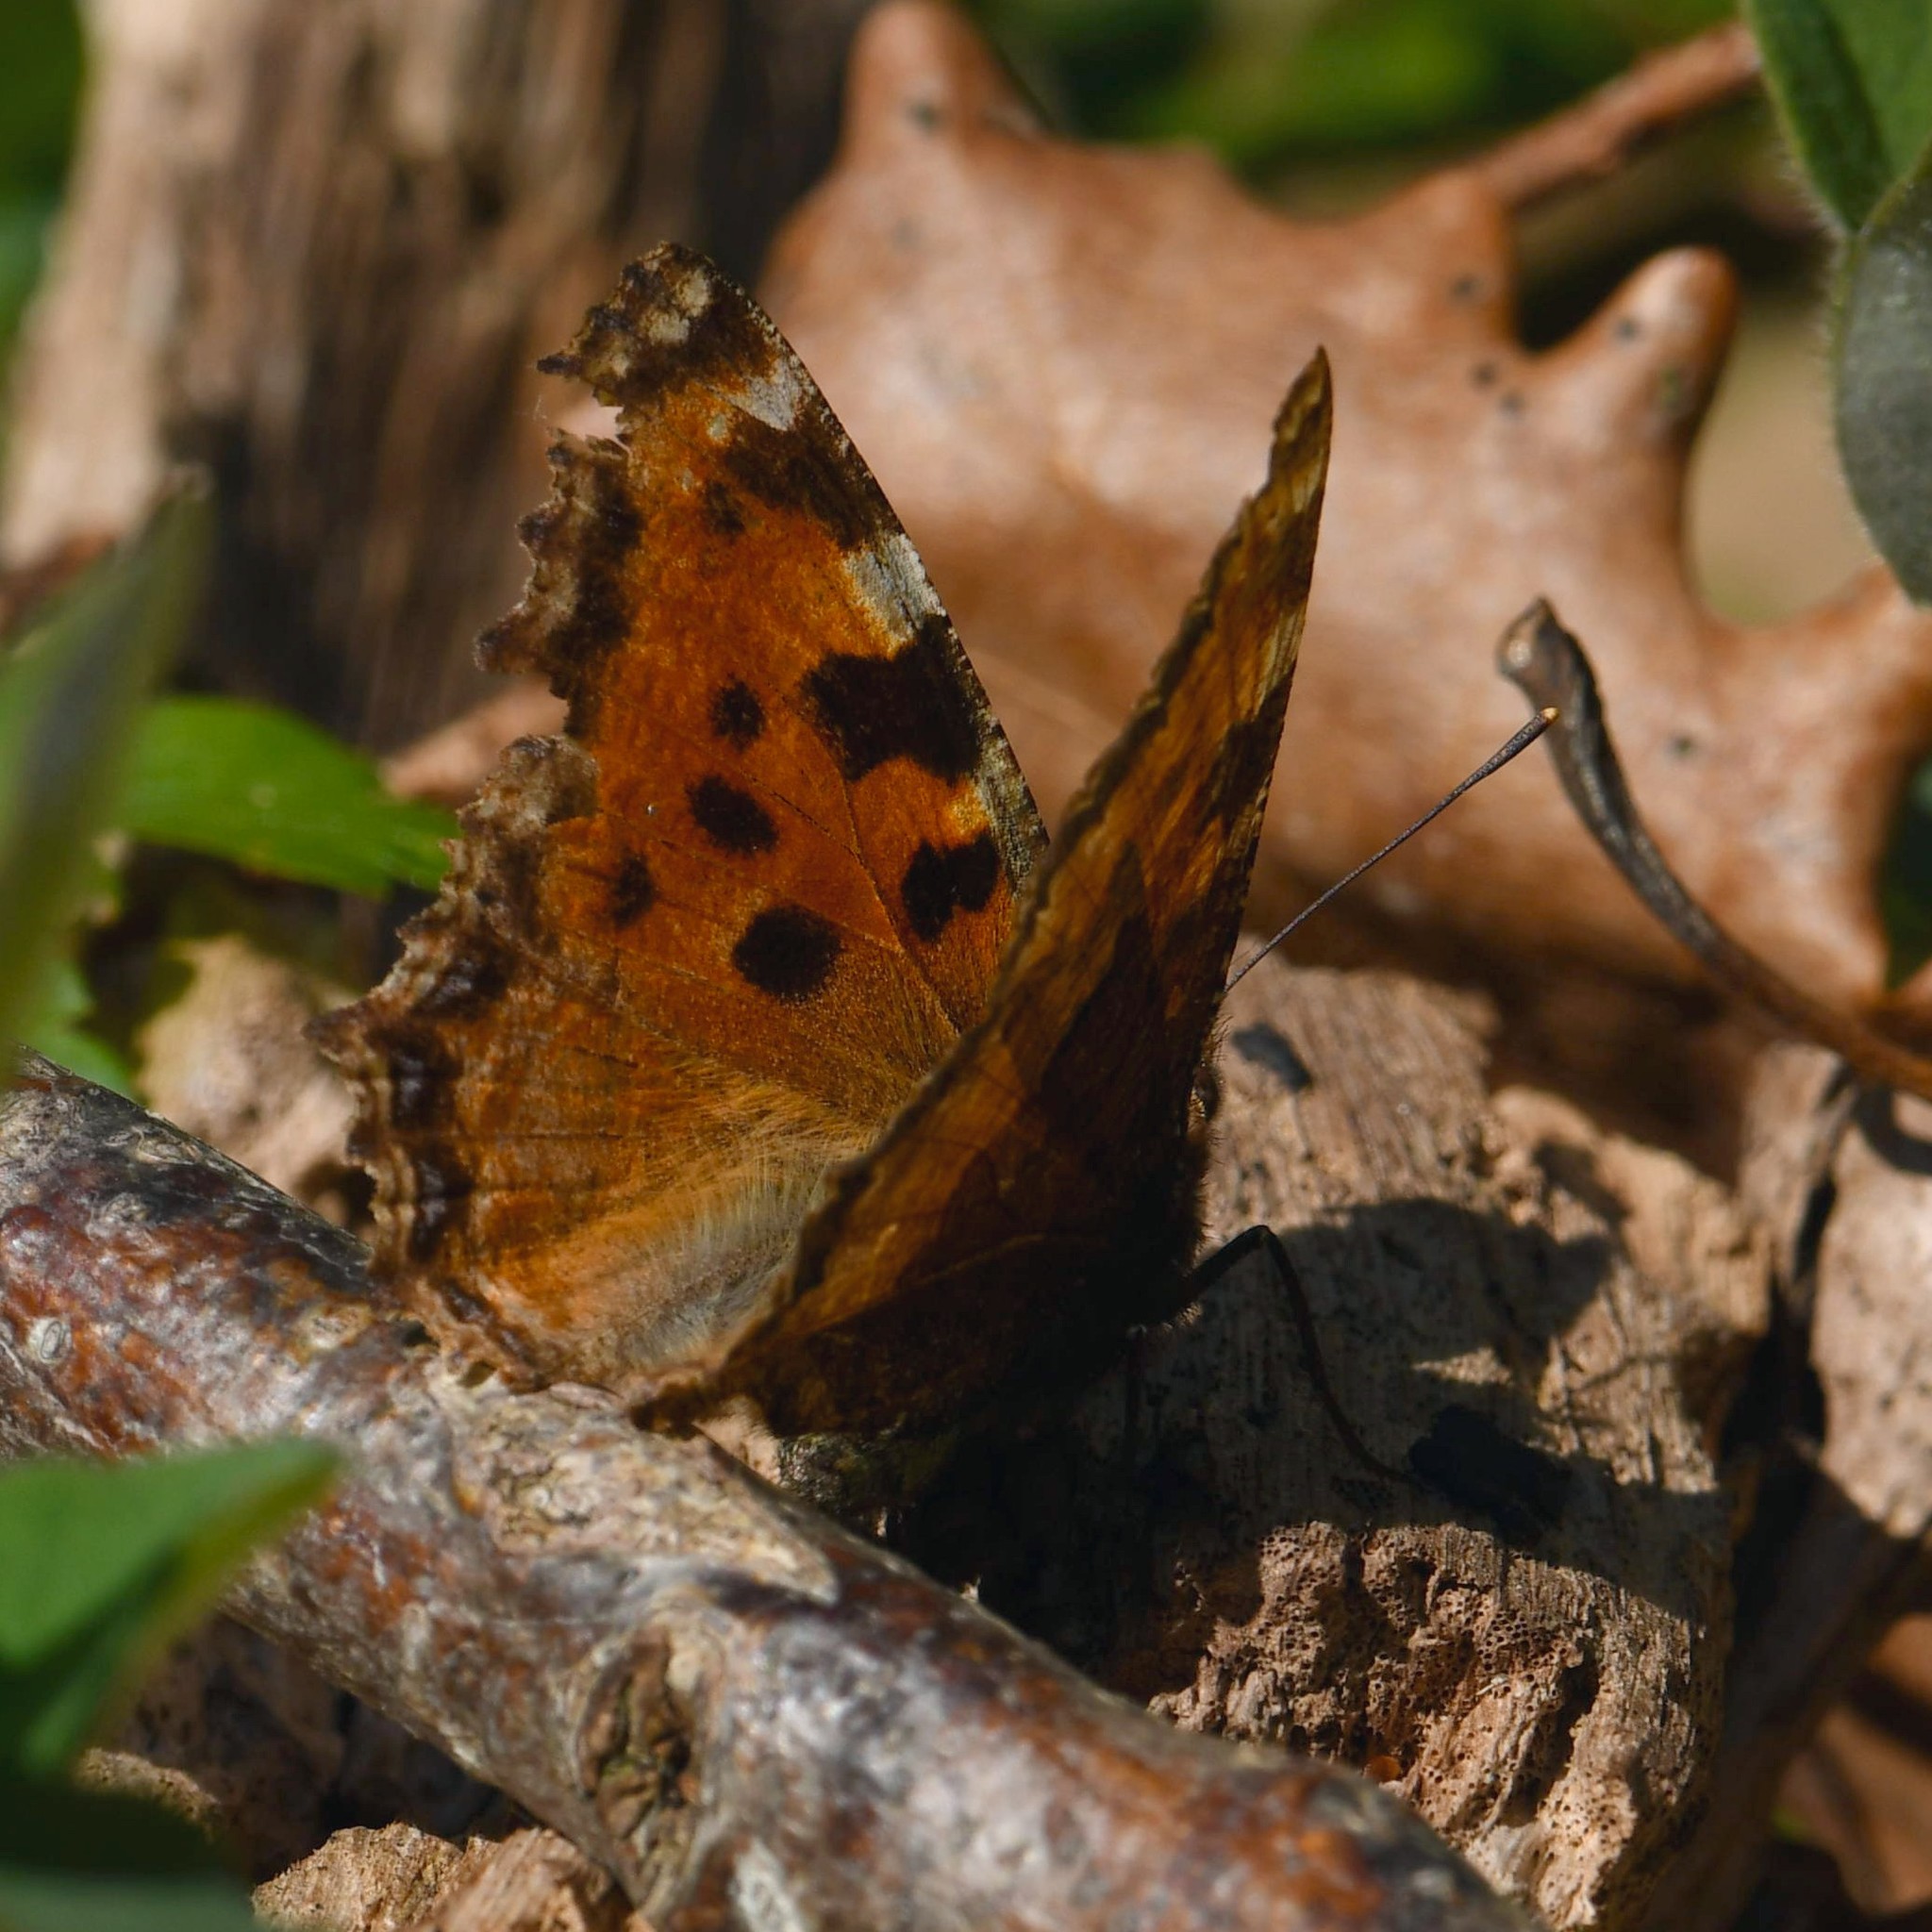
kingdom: Animalia
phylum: Arthropoda
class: Insecta
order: Lepidoptera
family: Nymphalidae
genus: Nymphalis
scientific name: Nymphalis polychloros
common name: Large tortoiseshell
